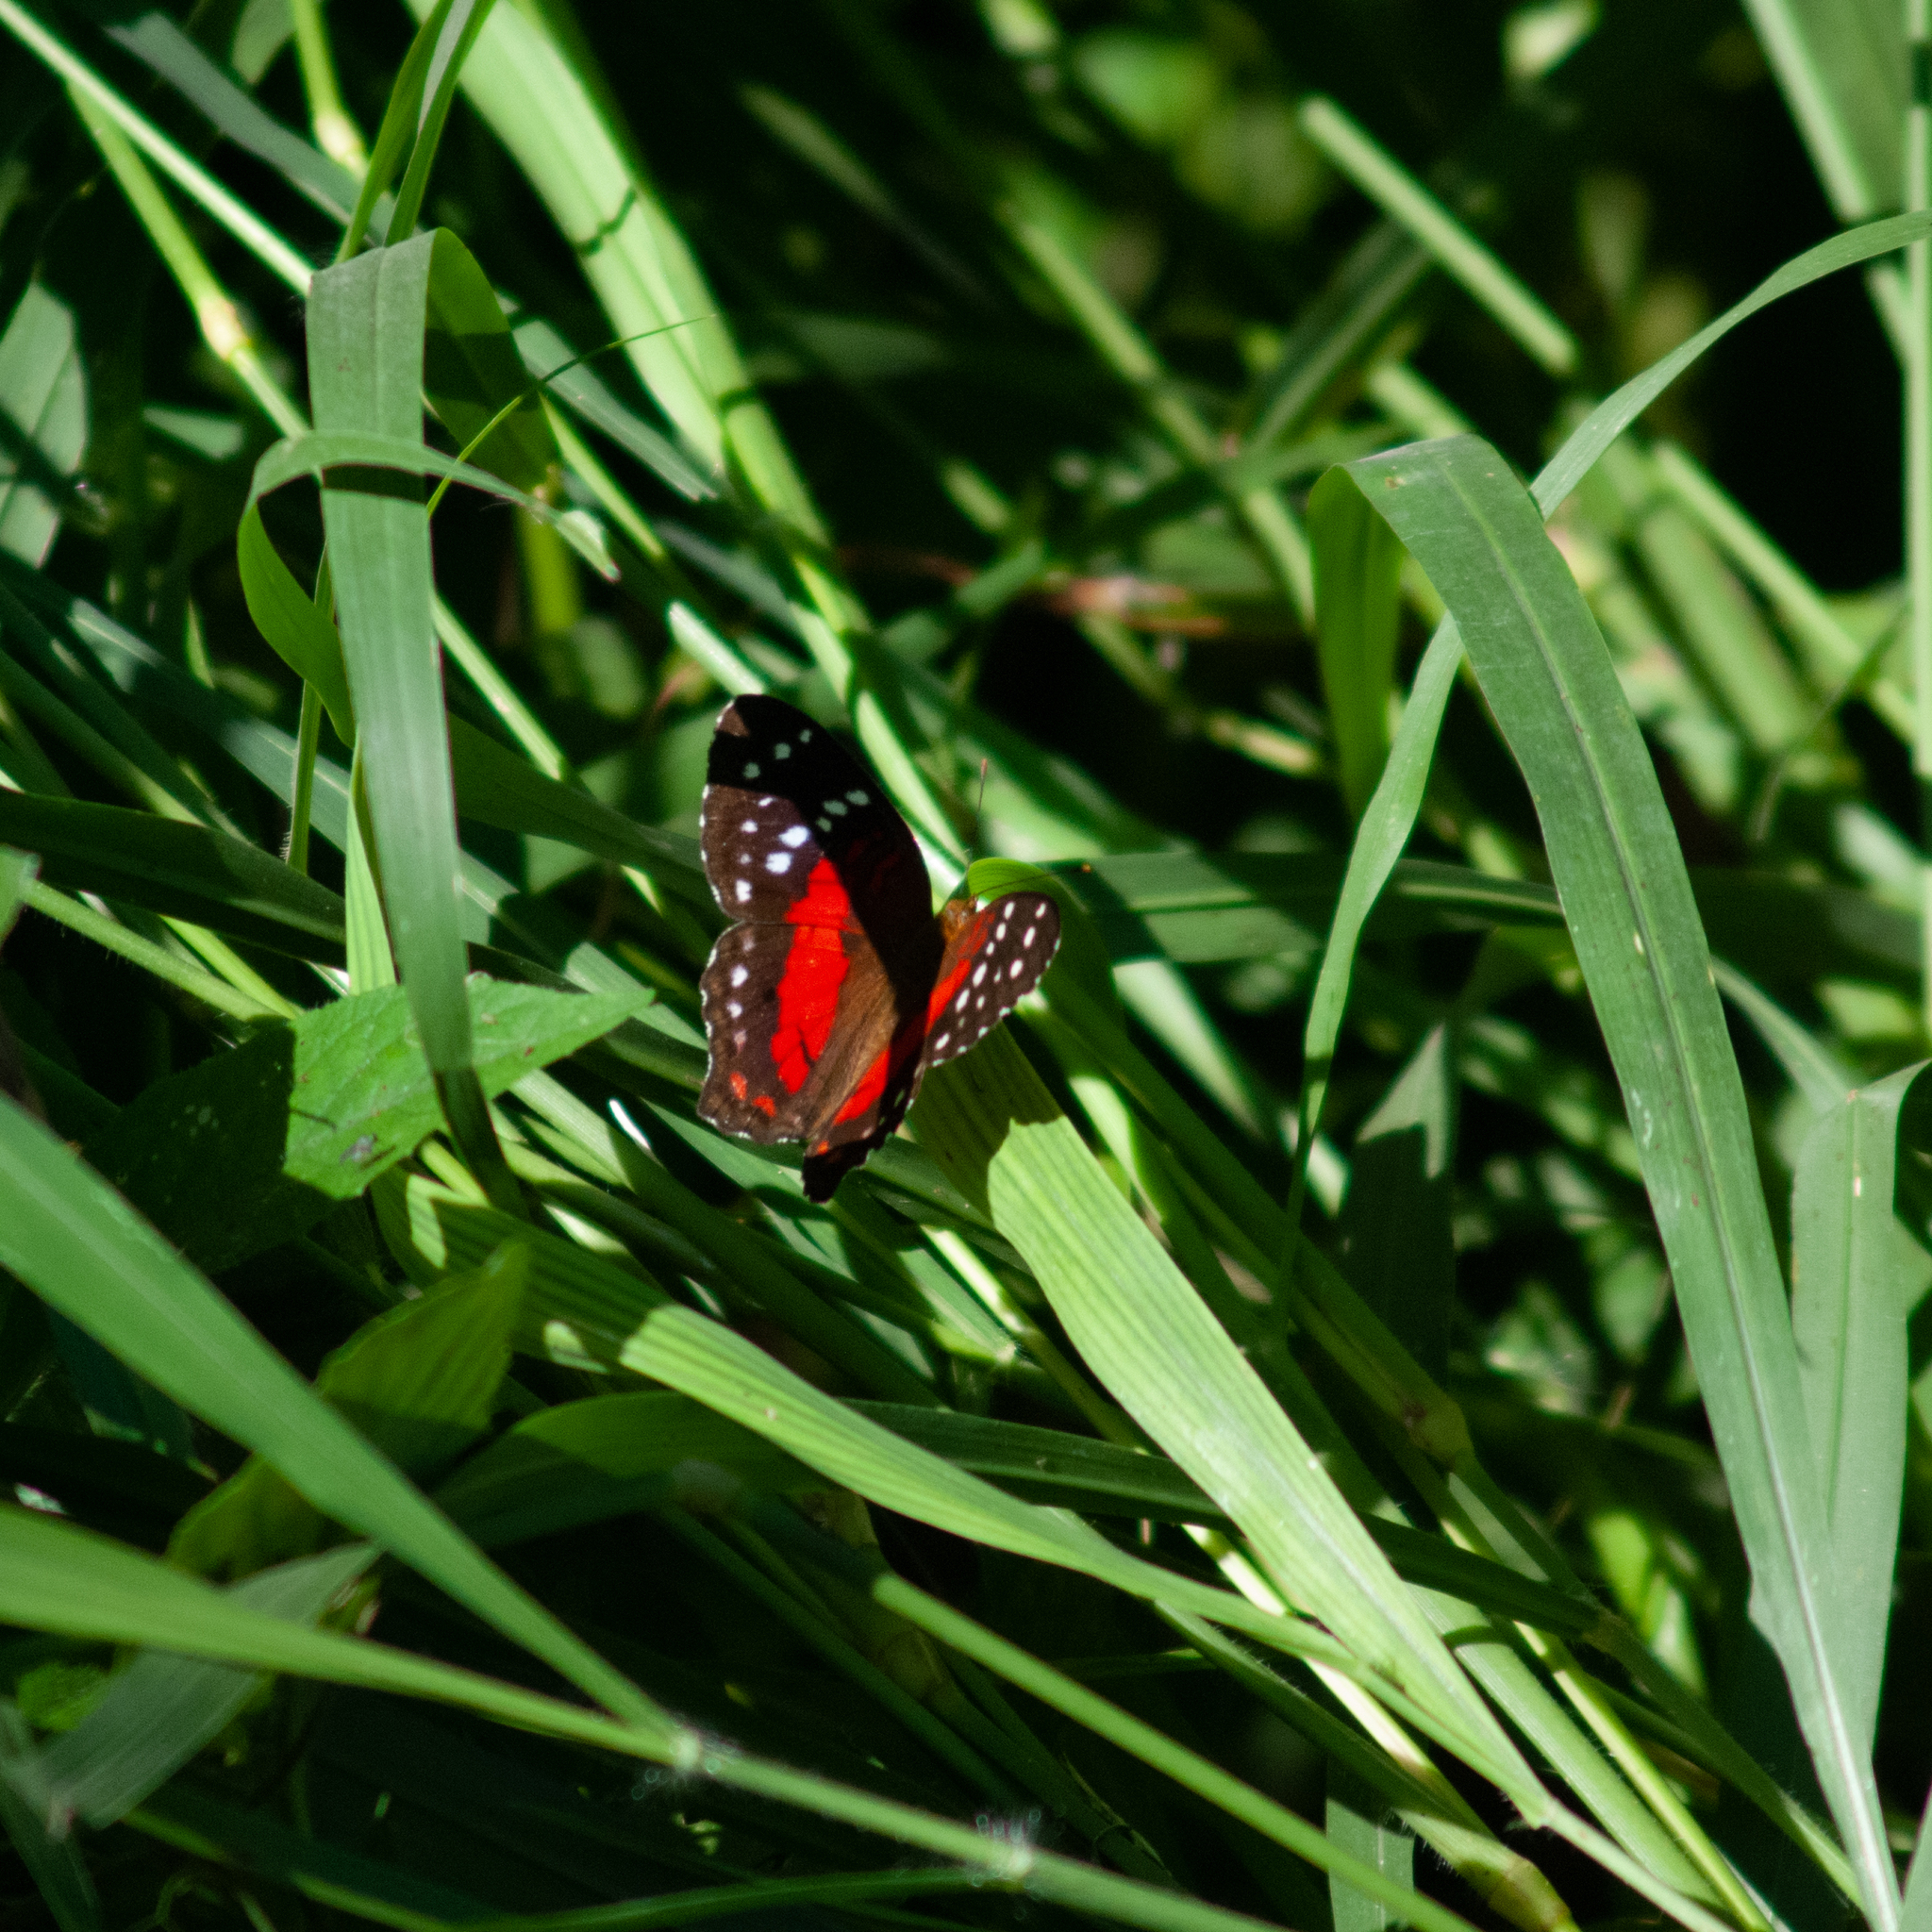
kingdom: Animalia
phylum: Arthropoda
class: Insecta
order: Lepidoptera
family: Nymphalidae
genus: Anartia
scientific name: Anartia amathea
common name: Red peacock
